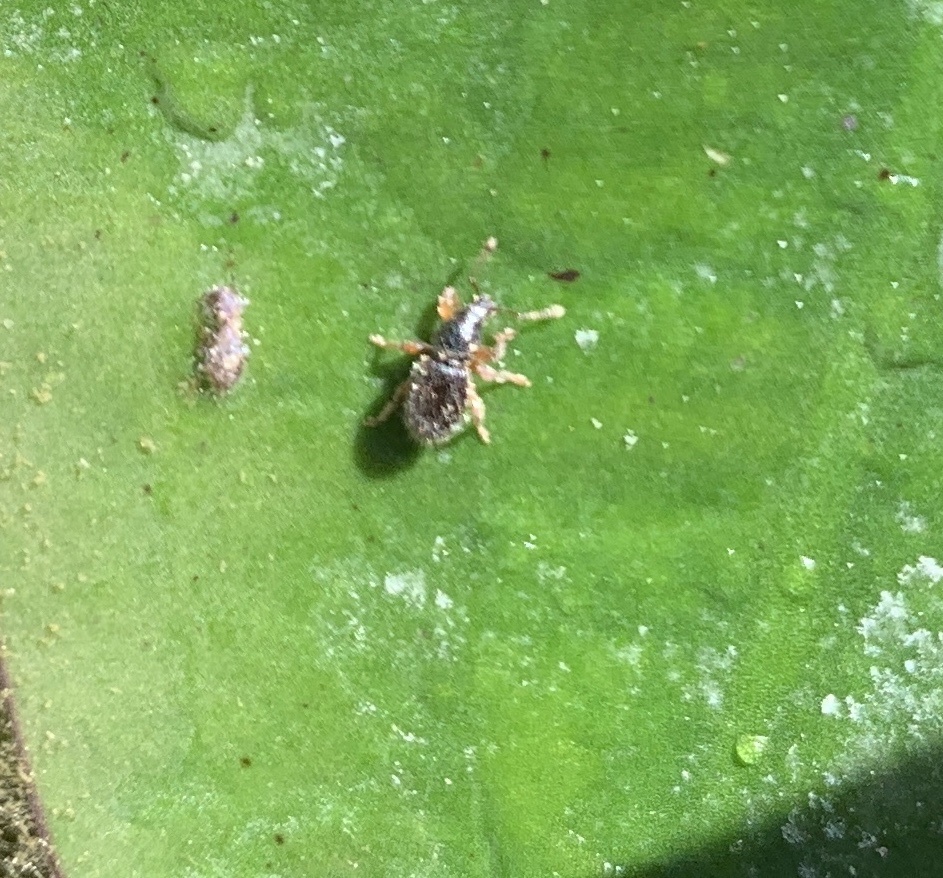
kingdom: Animalia
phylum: Arthropoda
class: Insecta
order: Coleoptera
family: Curculionidae
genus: Exomias
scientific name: Exomias pellucidus
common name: Hairy spider weevil
